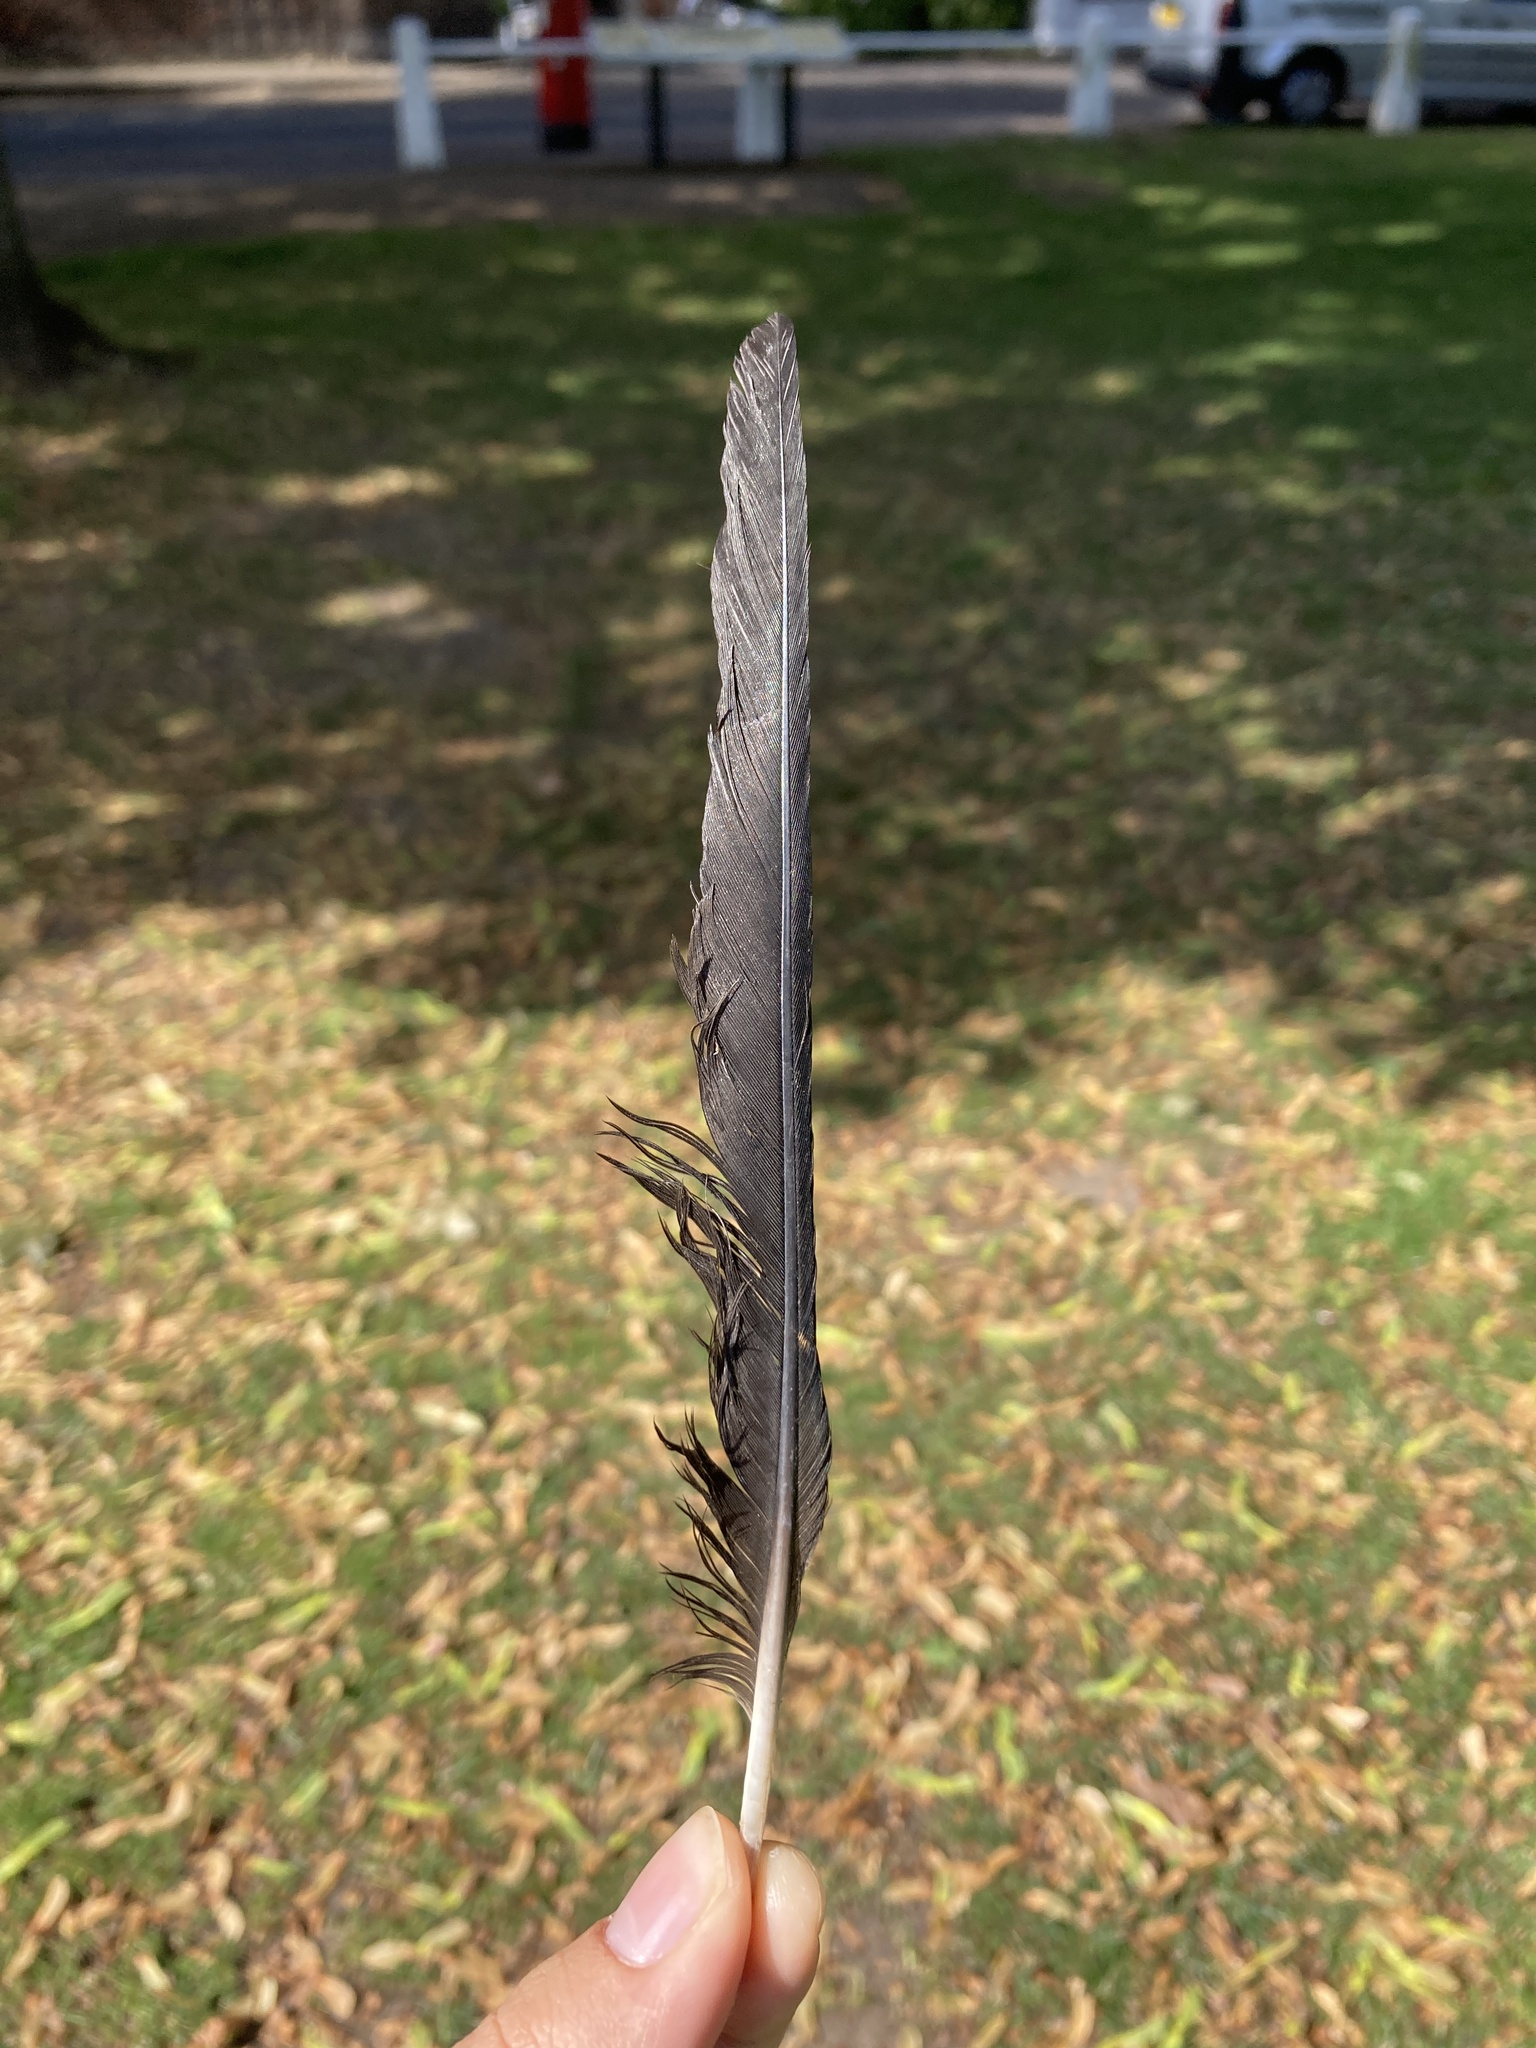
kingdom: Animalia
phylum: Chordata
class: Aves
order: Passeriformes
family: Corvidae
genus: Coloeus
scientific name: Coloeus monedula
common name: Western jackdaw
